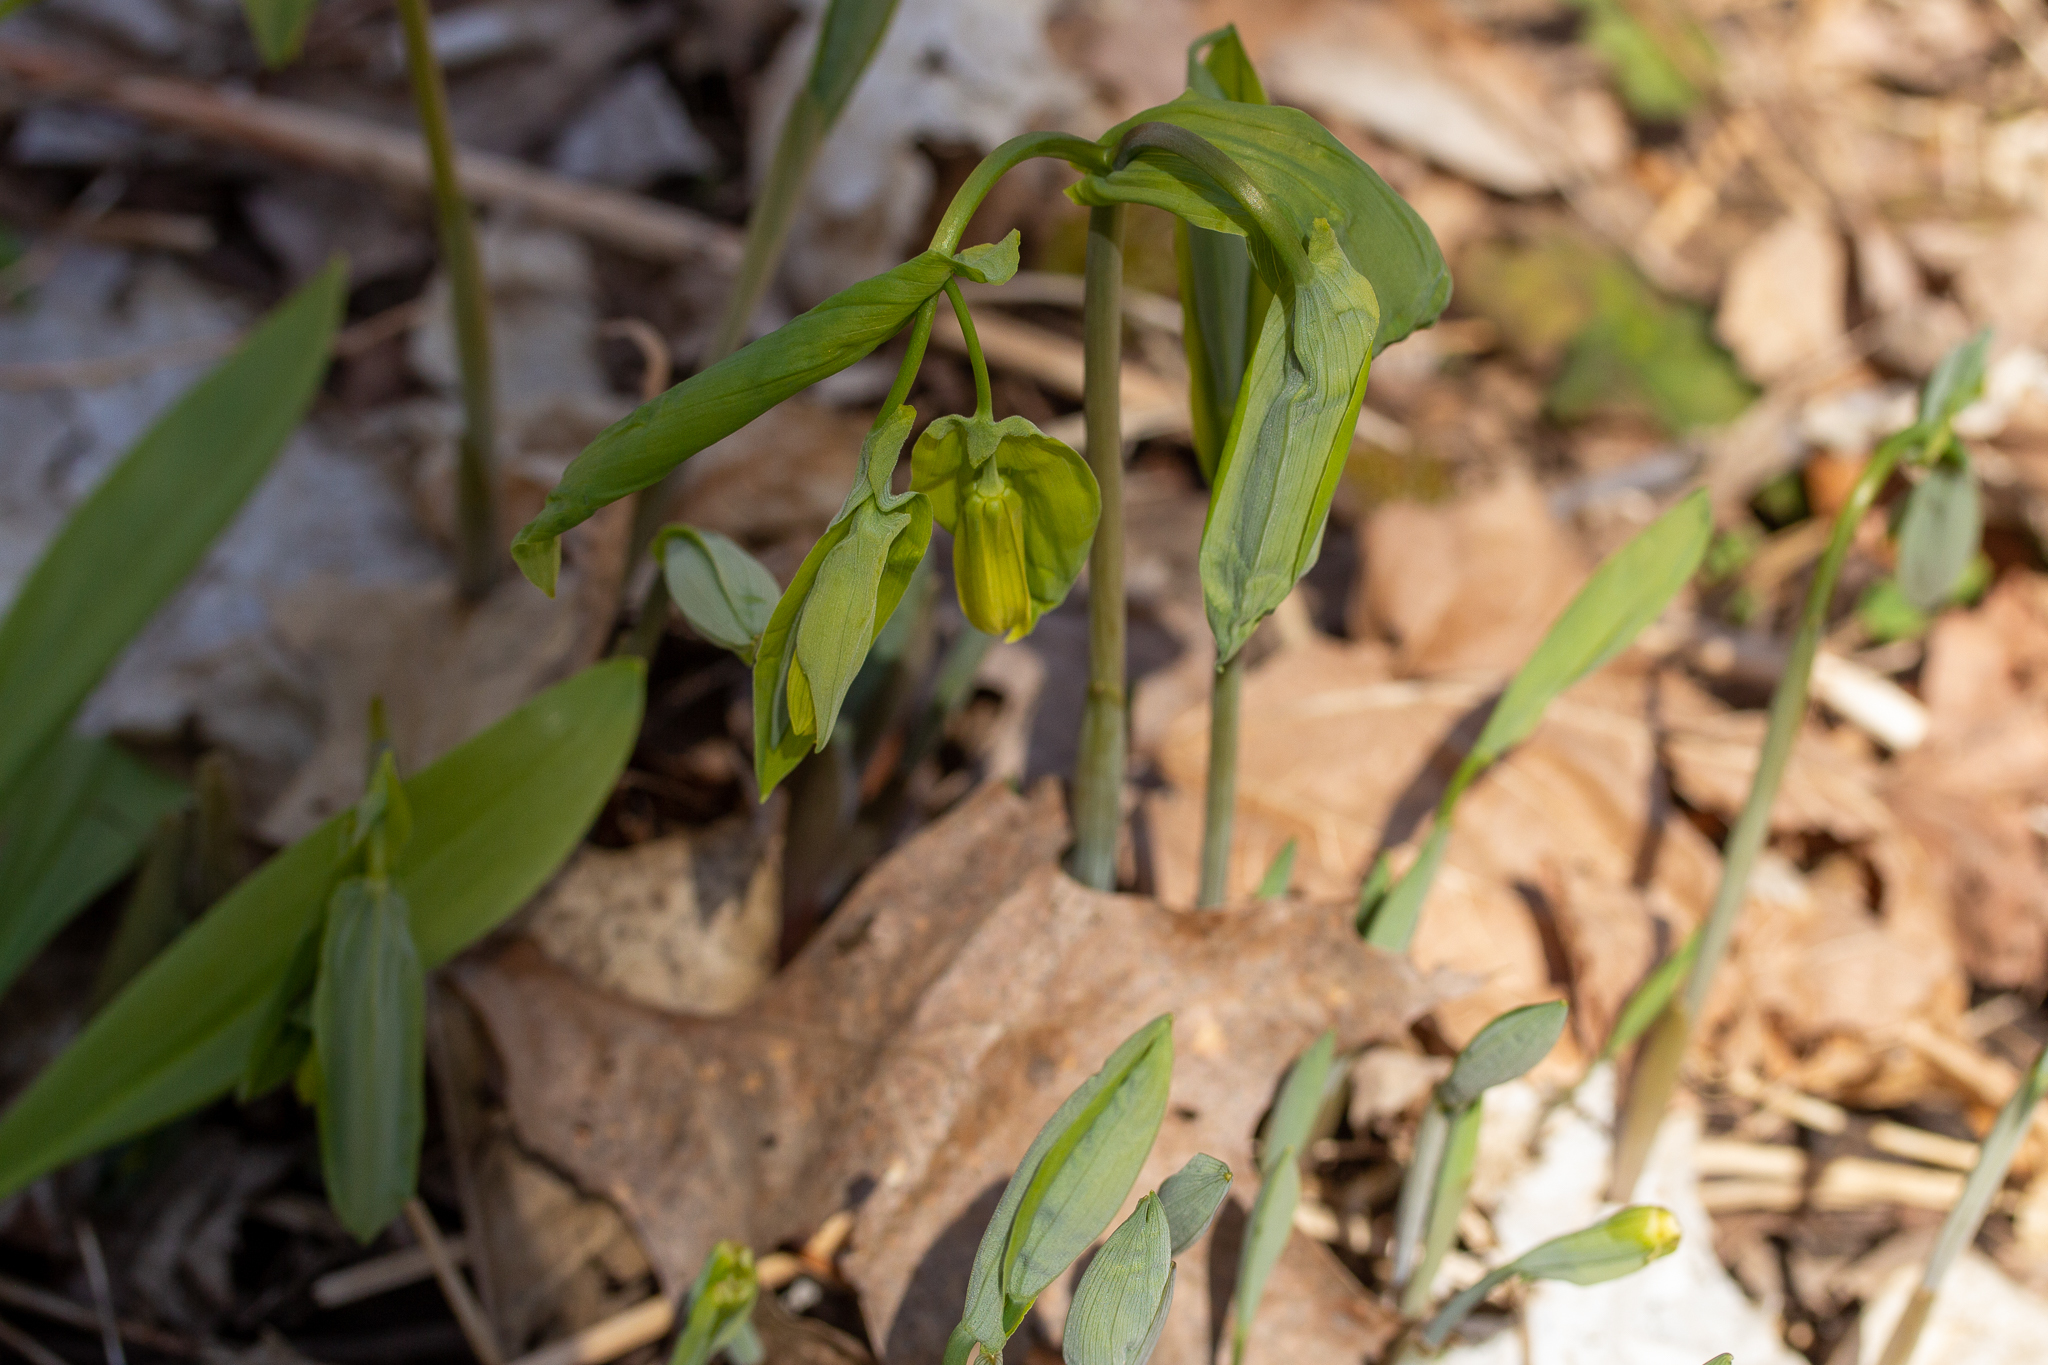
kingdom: Plantae
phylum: Tracheophyta
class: Liliopsida
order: Liliales
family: Colchicaceae
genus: Uvularia
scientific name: Uvularia grandiflora
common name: Bellwort
